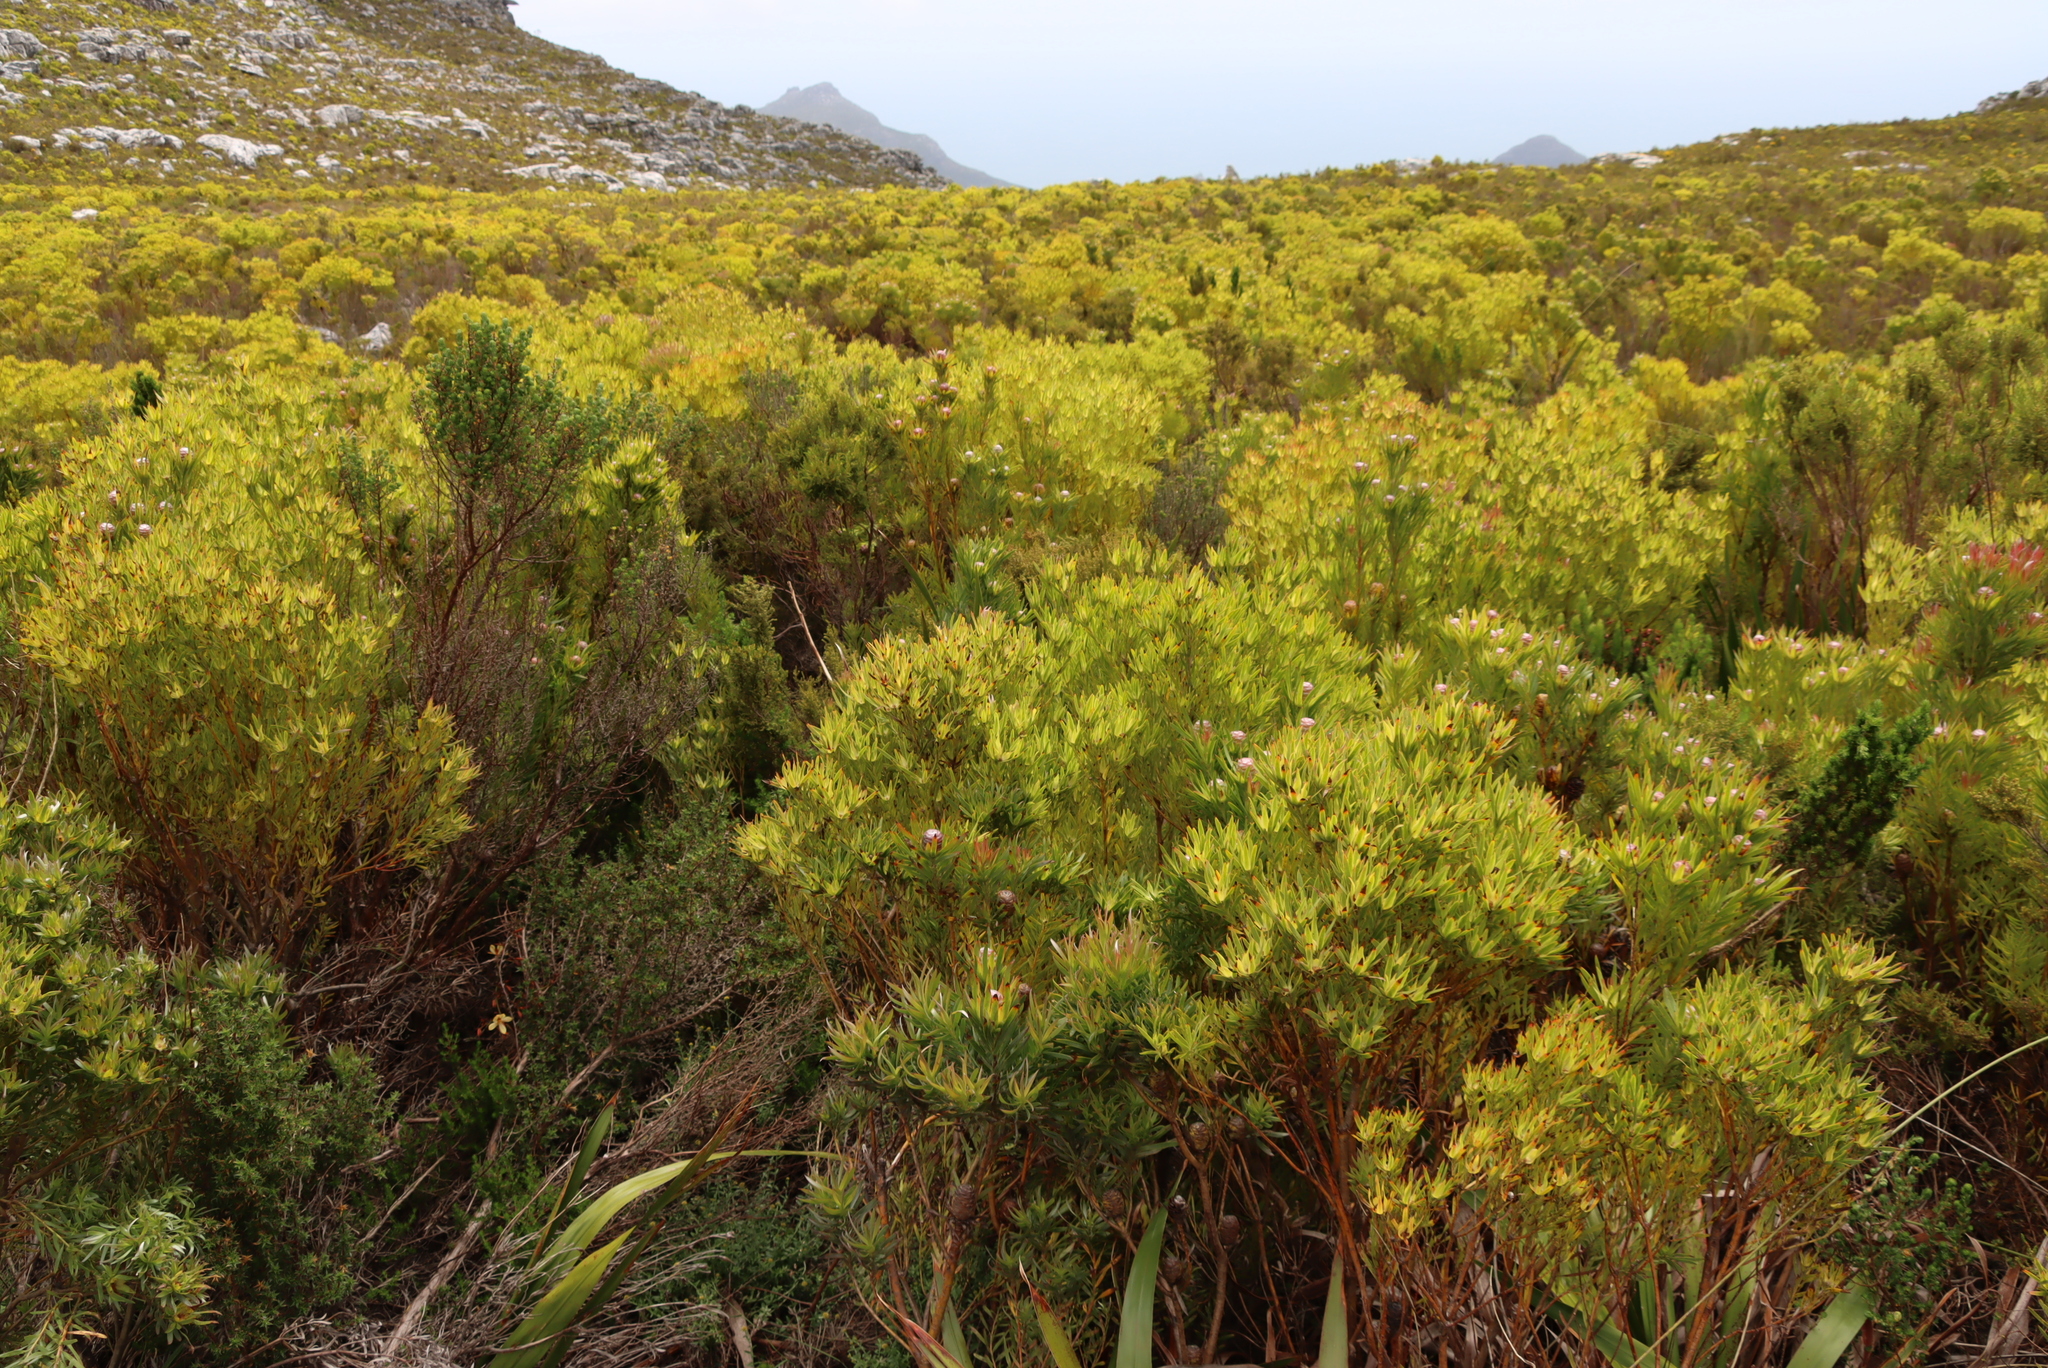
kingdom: Plantae
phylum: Tracheophyta
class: Magnoliopsida
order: Proteales
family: Proteaceae
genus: Leucadendron
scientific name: Leucadendron xanthoconus
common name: Sickle-leaf conebush
